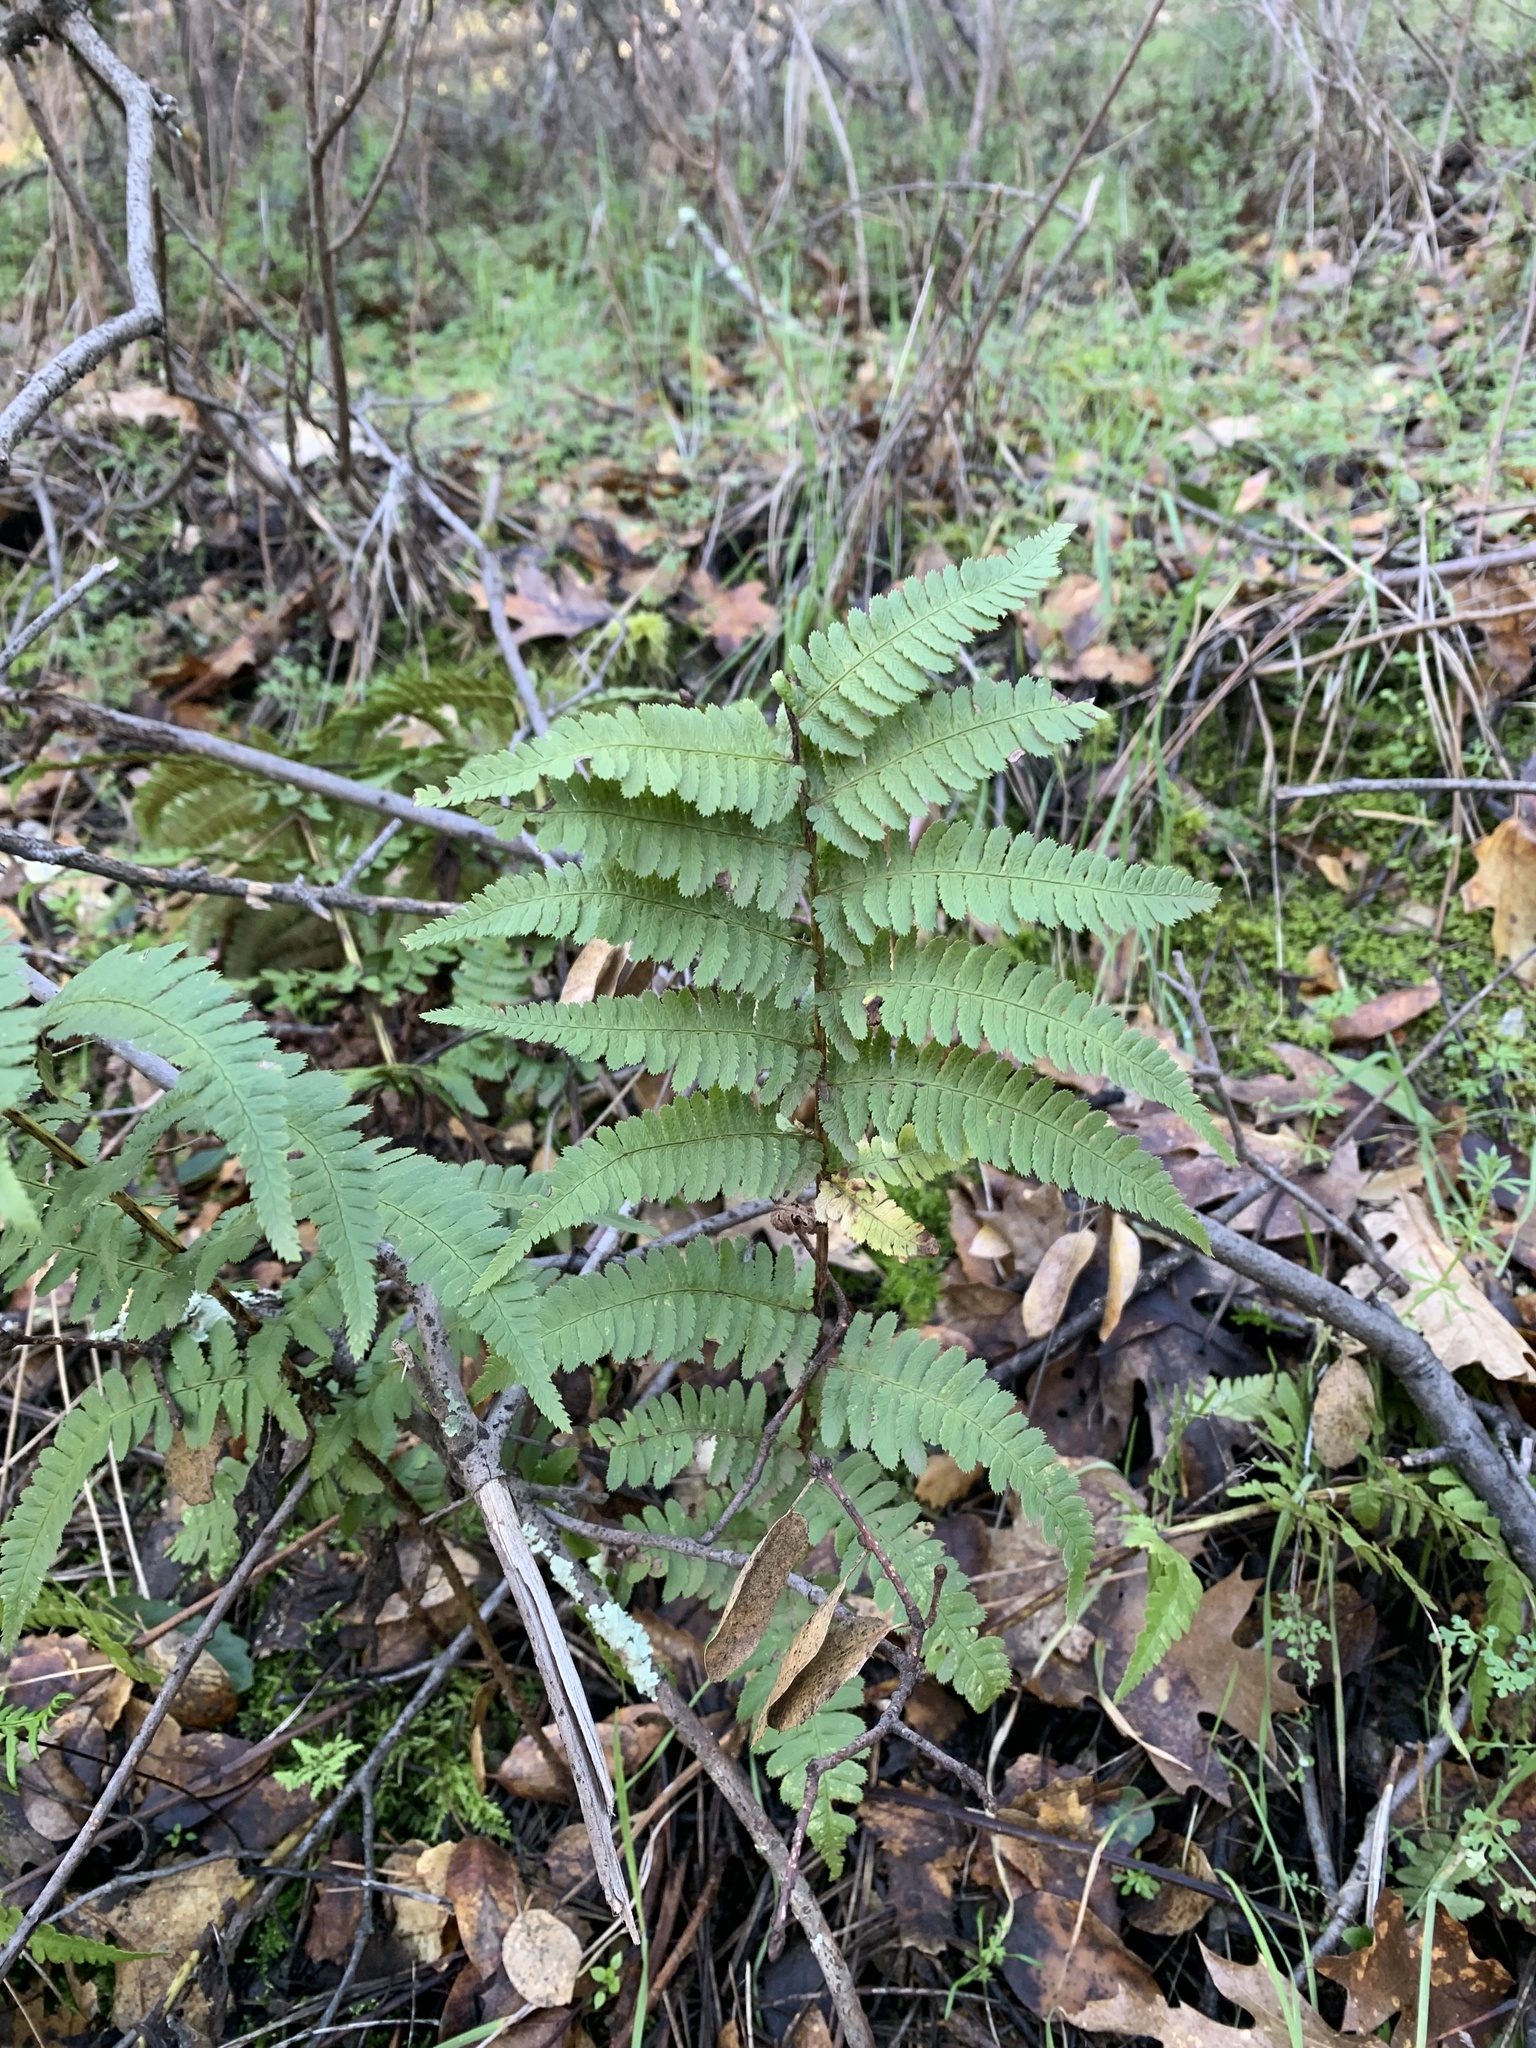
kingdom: Plantae
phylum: Tracheophyta
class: Polypodiopsida
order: Polypodiales
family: Dryopteridaceae
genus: Dryopteris
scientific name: Dryopteris arguta
